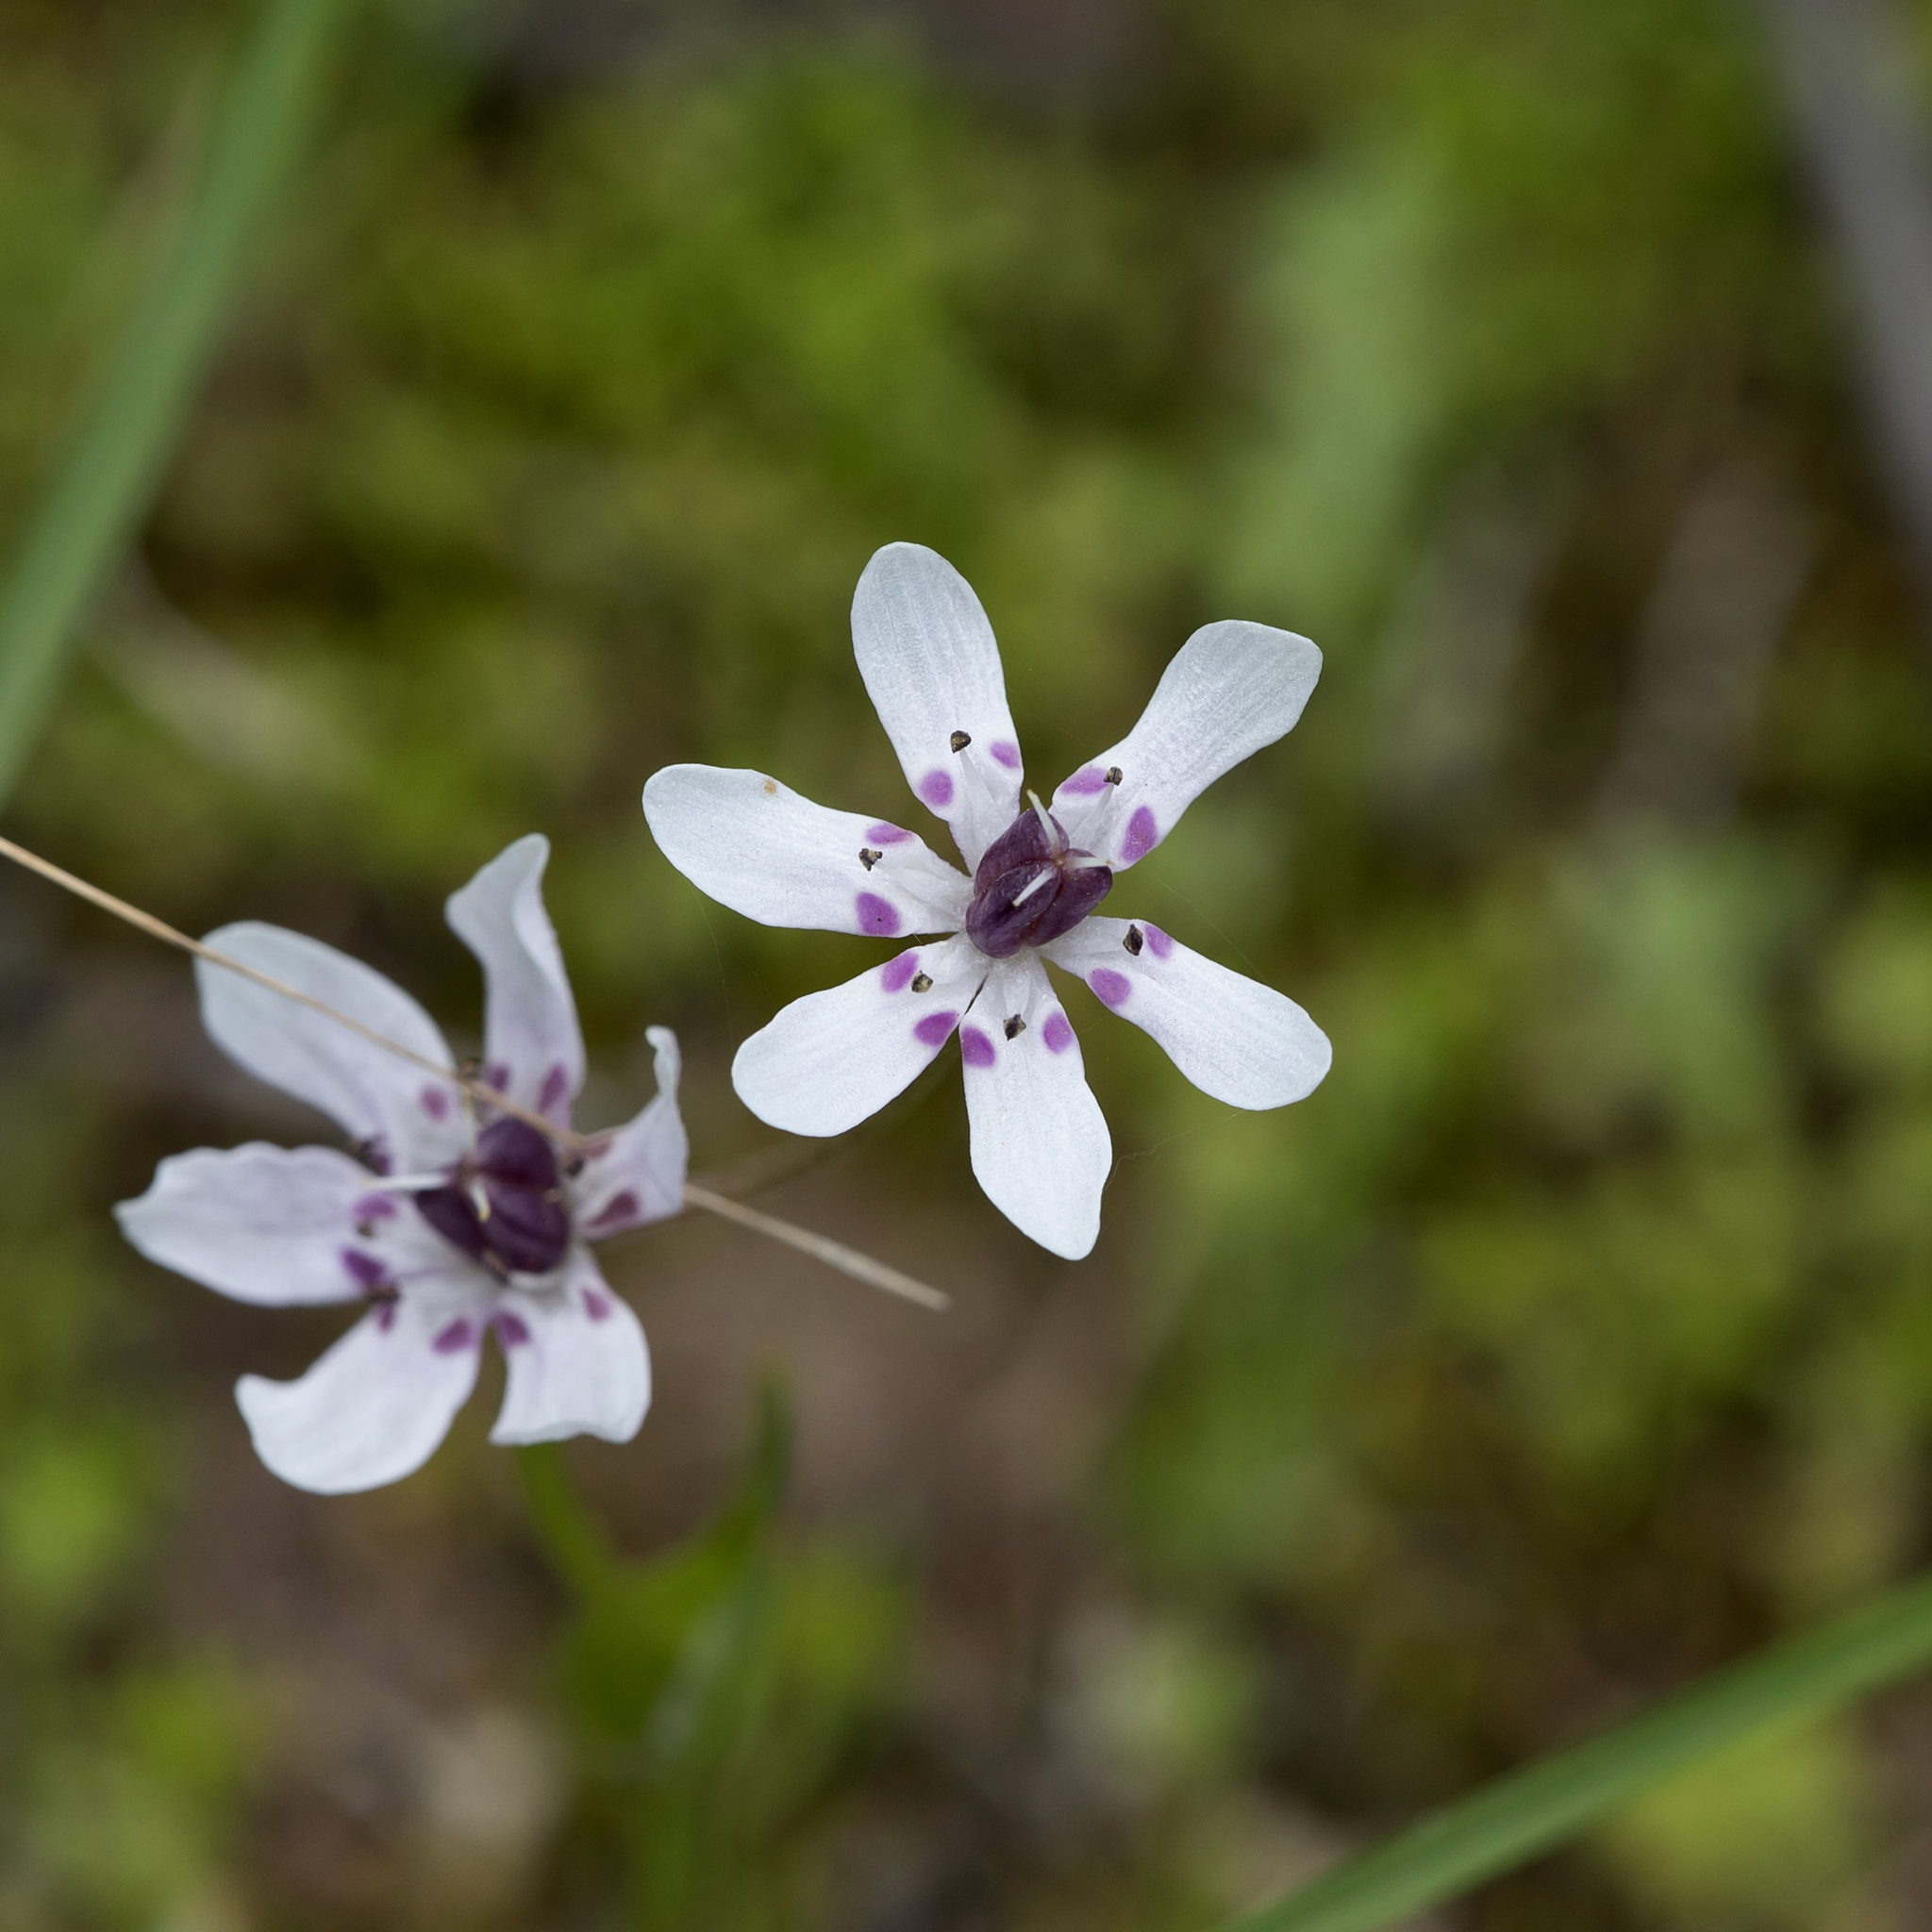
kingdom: Plantae
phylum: Tracheophyta
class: Liliopsida
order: Liliales
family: Colchicaceae
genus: Wurmbea
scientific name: Wurmbea biglandulosa
